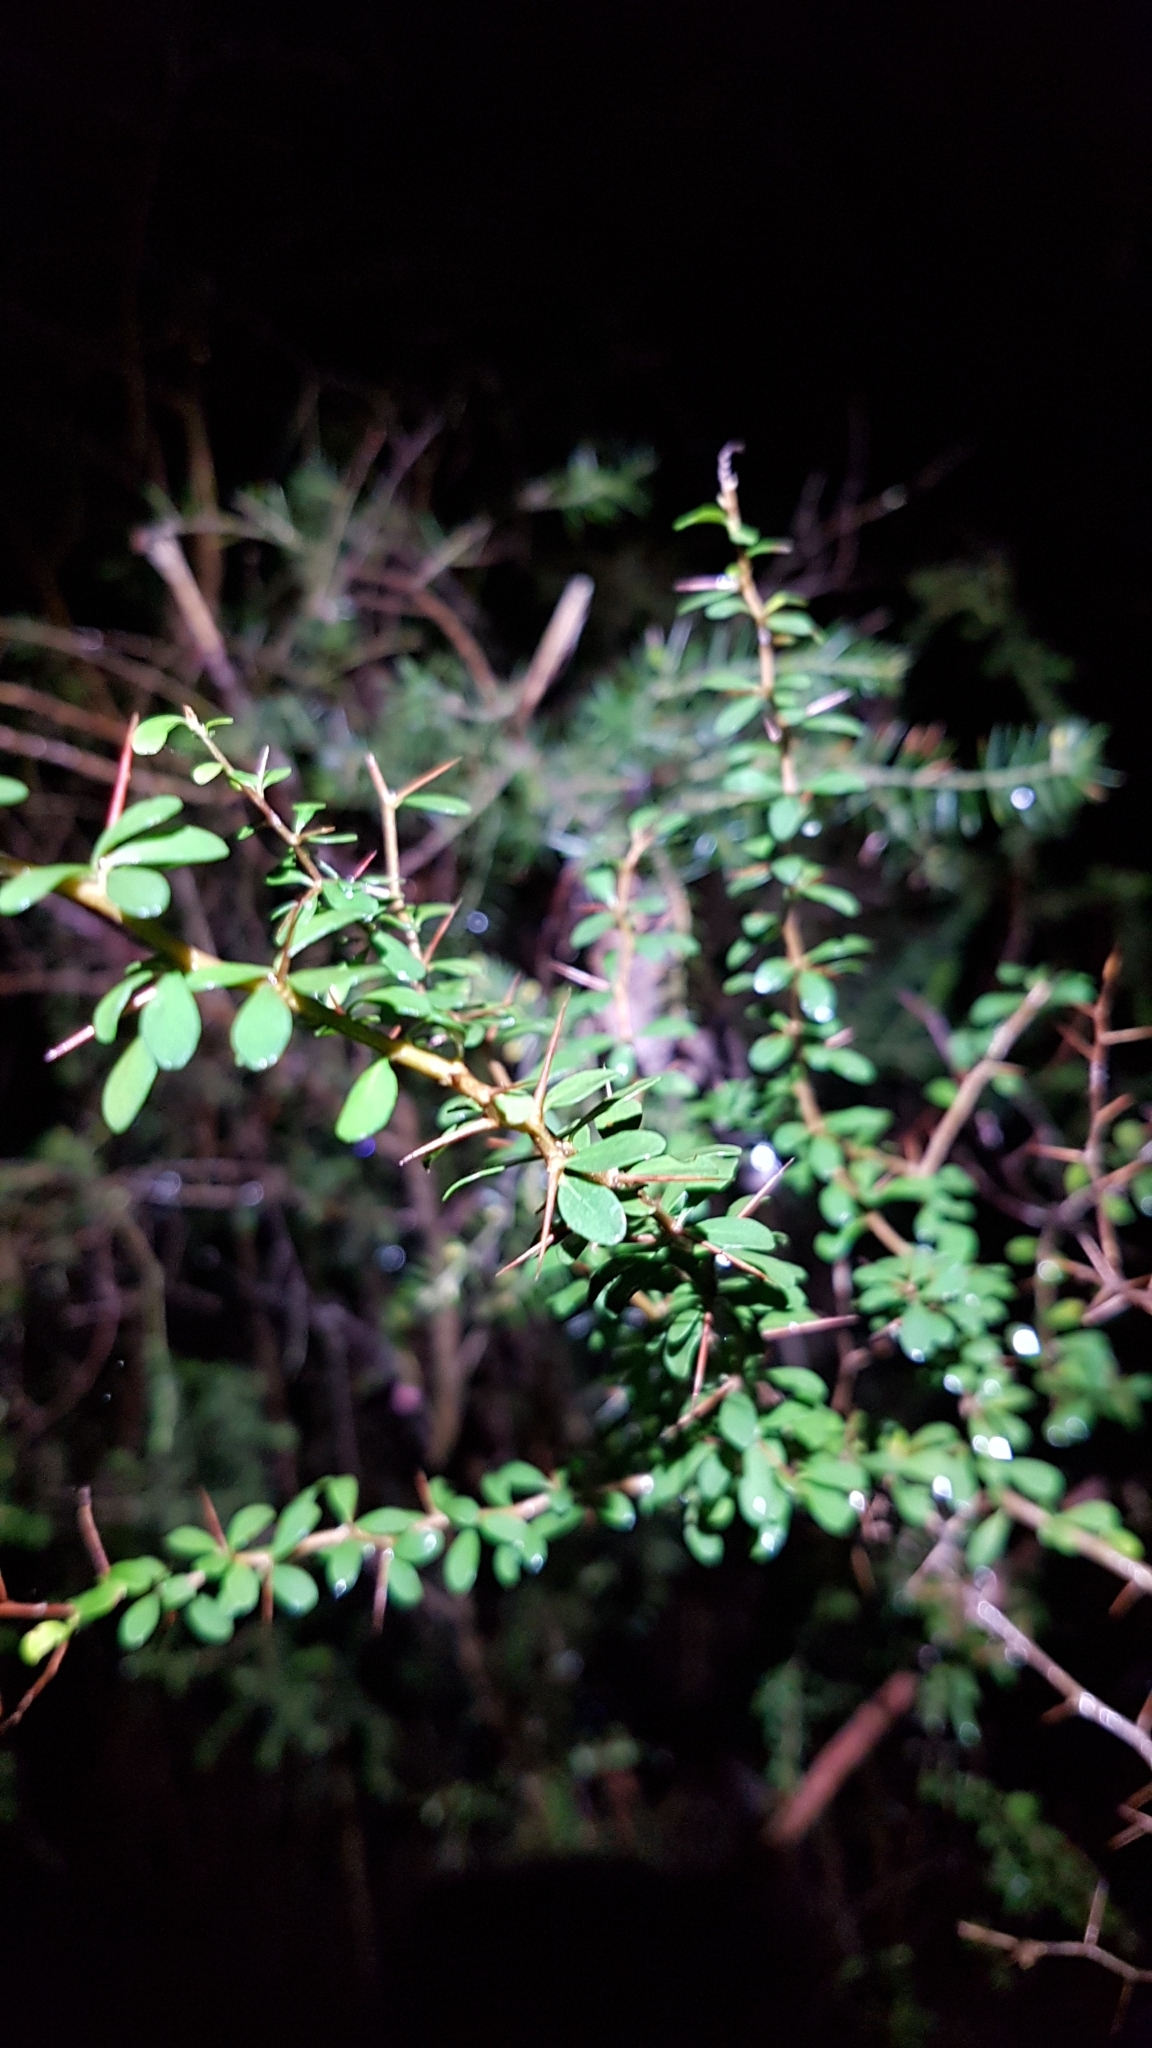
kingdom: Plantae
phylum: Tracheophyta
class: Magnoliopsida
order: Apiales
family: Pittosporaceae
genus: Bursaria
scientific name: Bursaria spinosa
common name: Australian blackthorn
